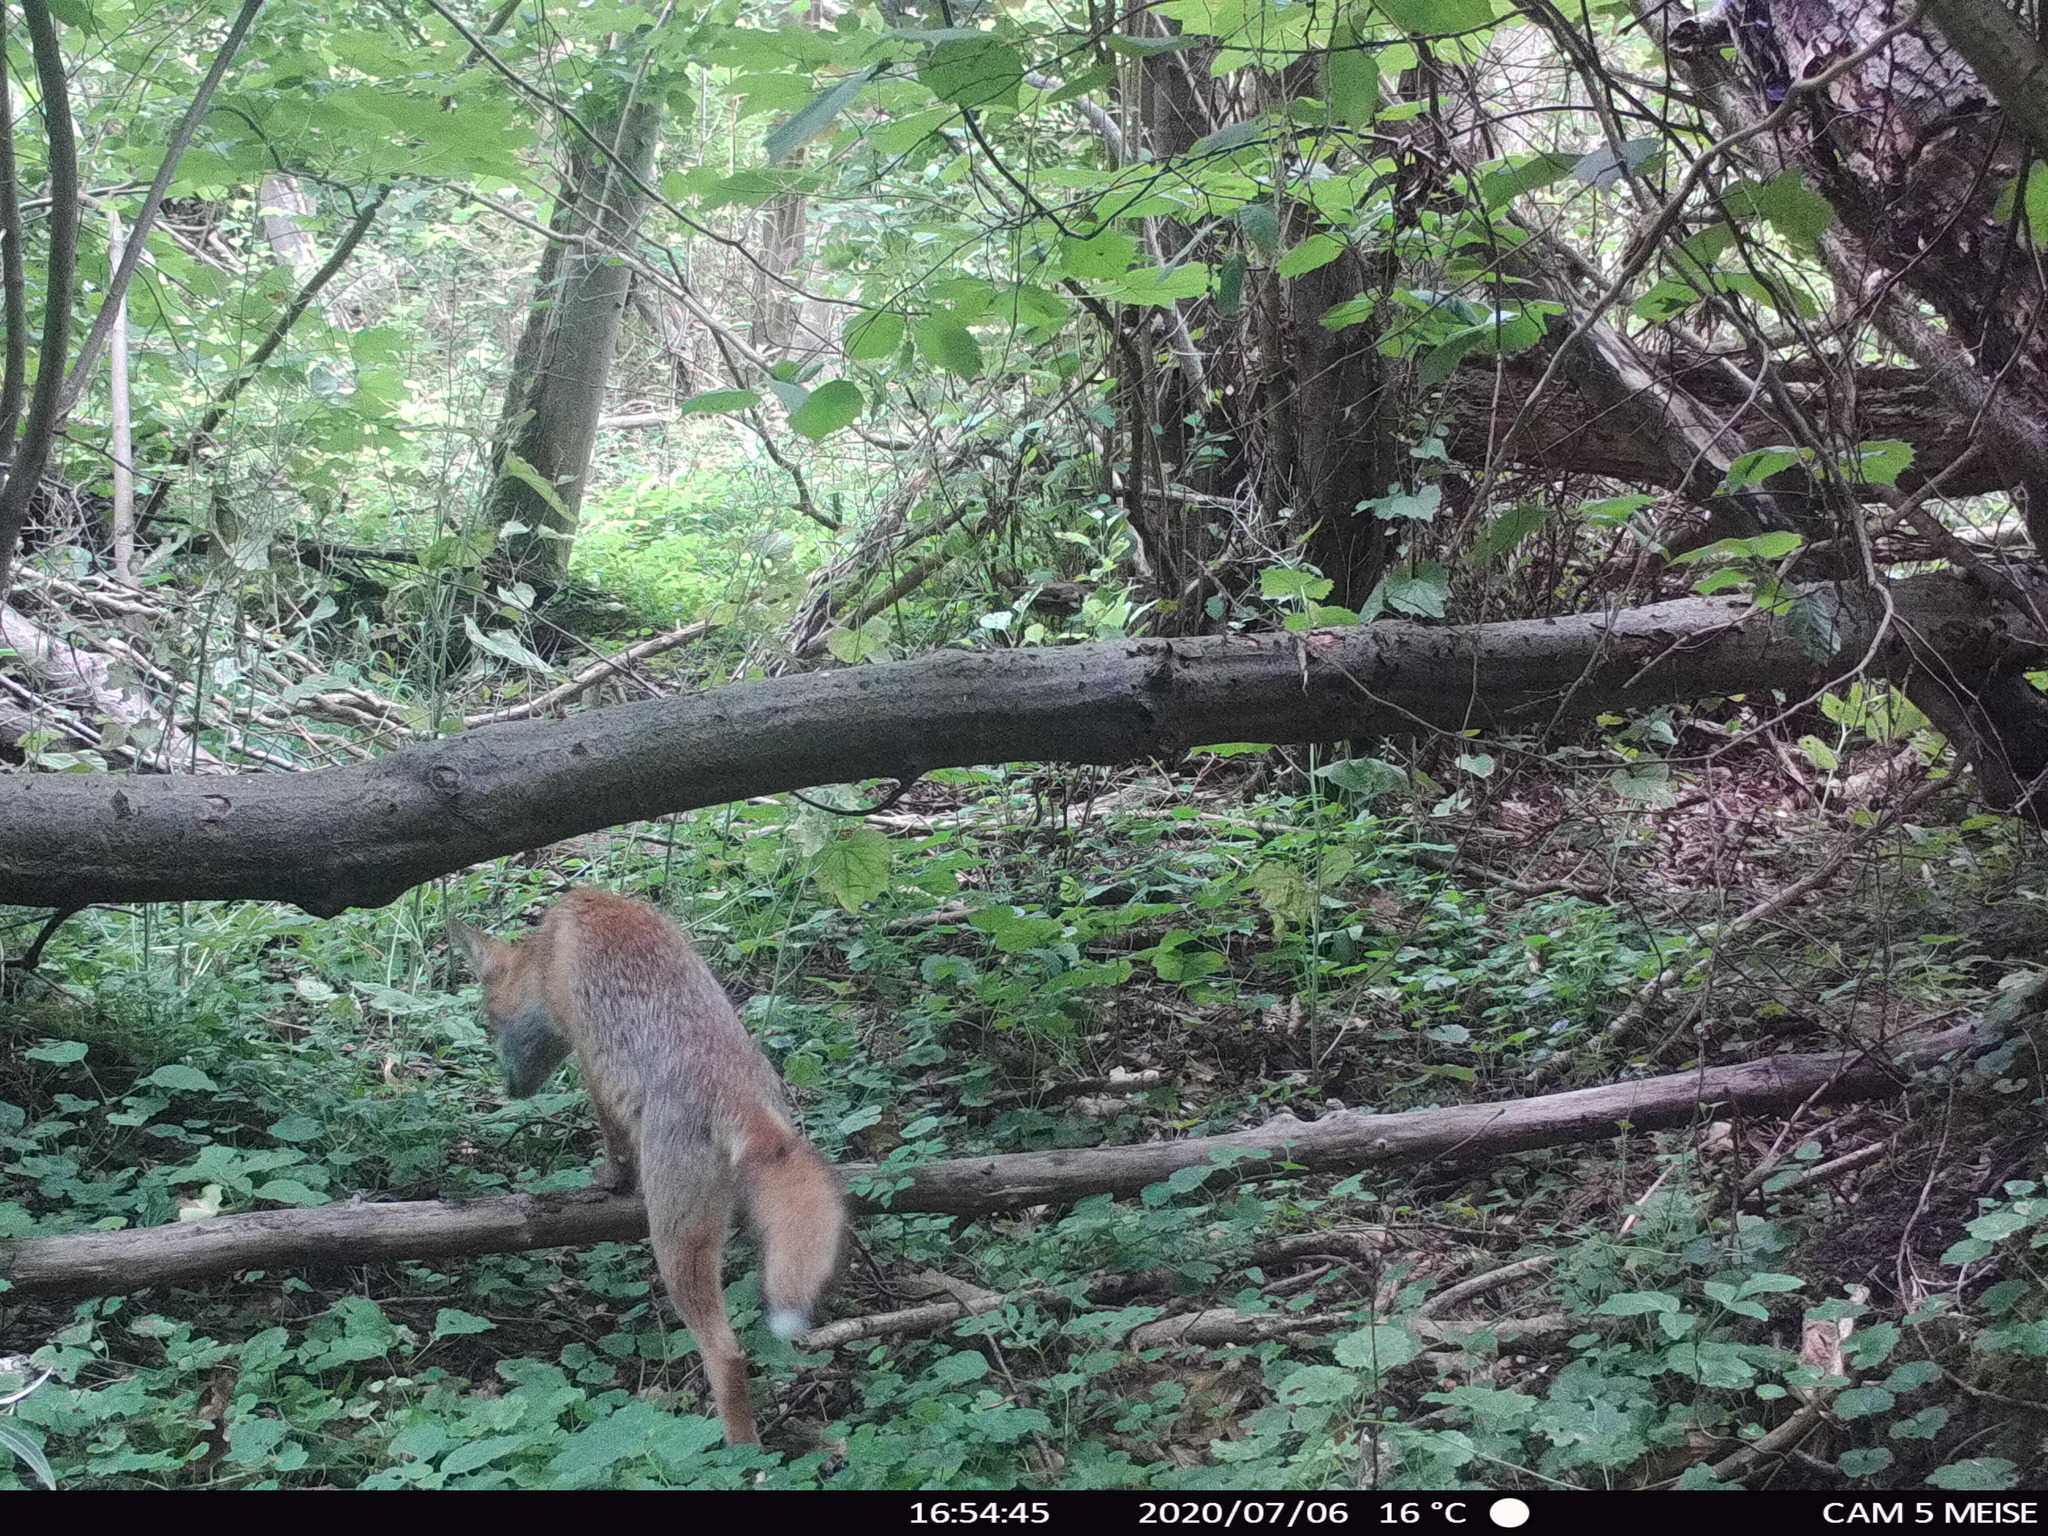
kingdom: Animalia
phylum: Chordata
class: Mammalia
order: Carnivora
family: Canidae
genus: Vulpes
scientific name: Vulpes vulpes
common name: Red fox
